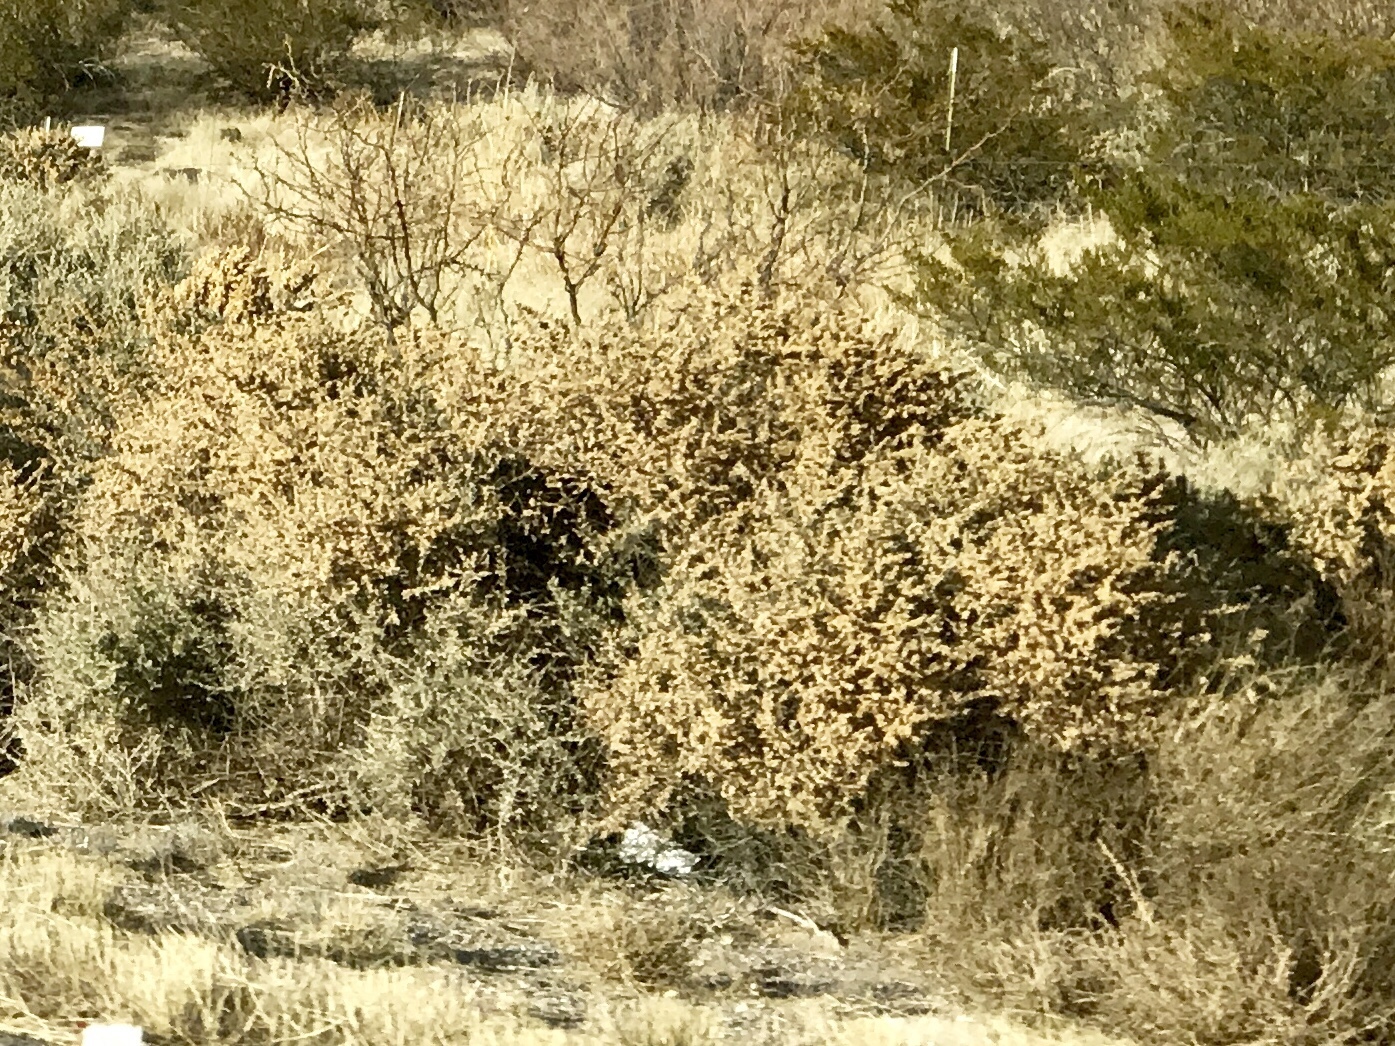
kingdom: Plantae
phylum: Tracheophyta
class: Magnoliopsida
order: Caryophyllales
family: Amaranthaceae
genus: Atriplex
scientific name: Atriplex canescens
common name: Four-wing saltbush
